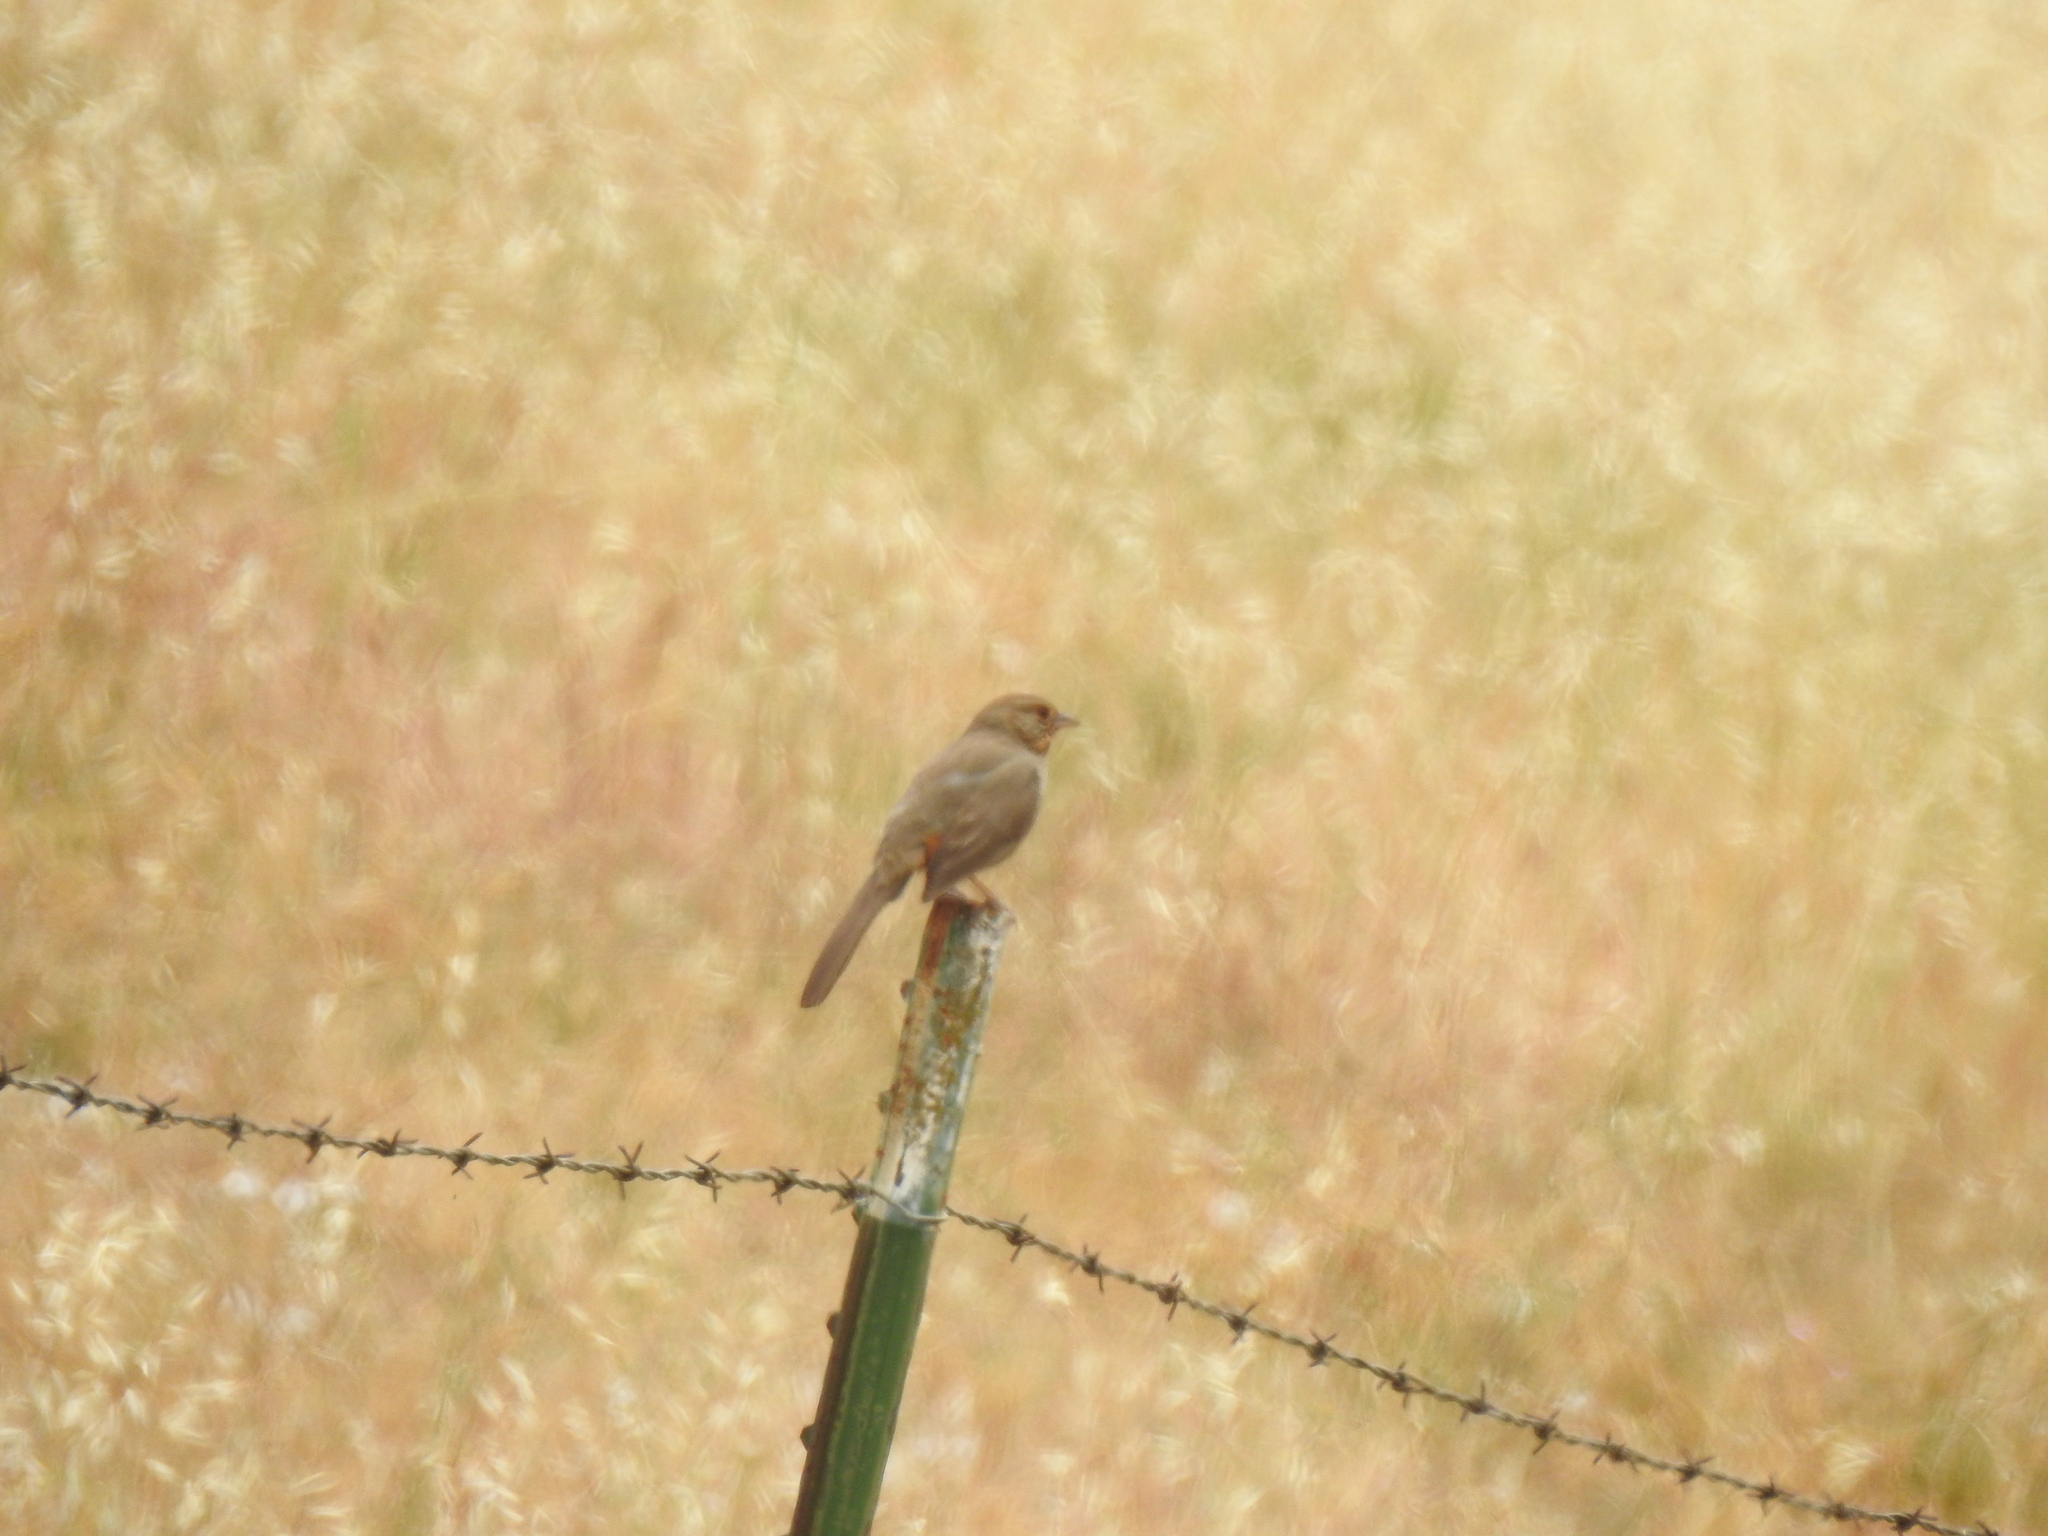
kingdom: Animalia
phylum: Chordata
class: Aves
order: Passeriformes
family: Passerellidae
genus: Melozone
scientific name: Melozone crissalis
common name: California towhee
